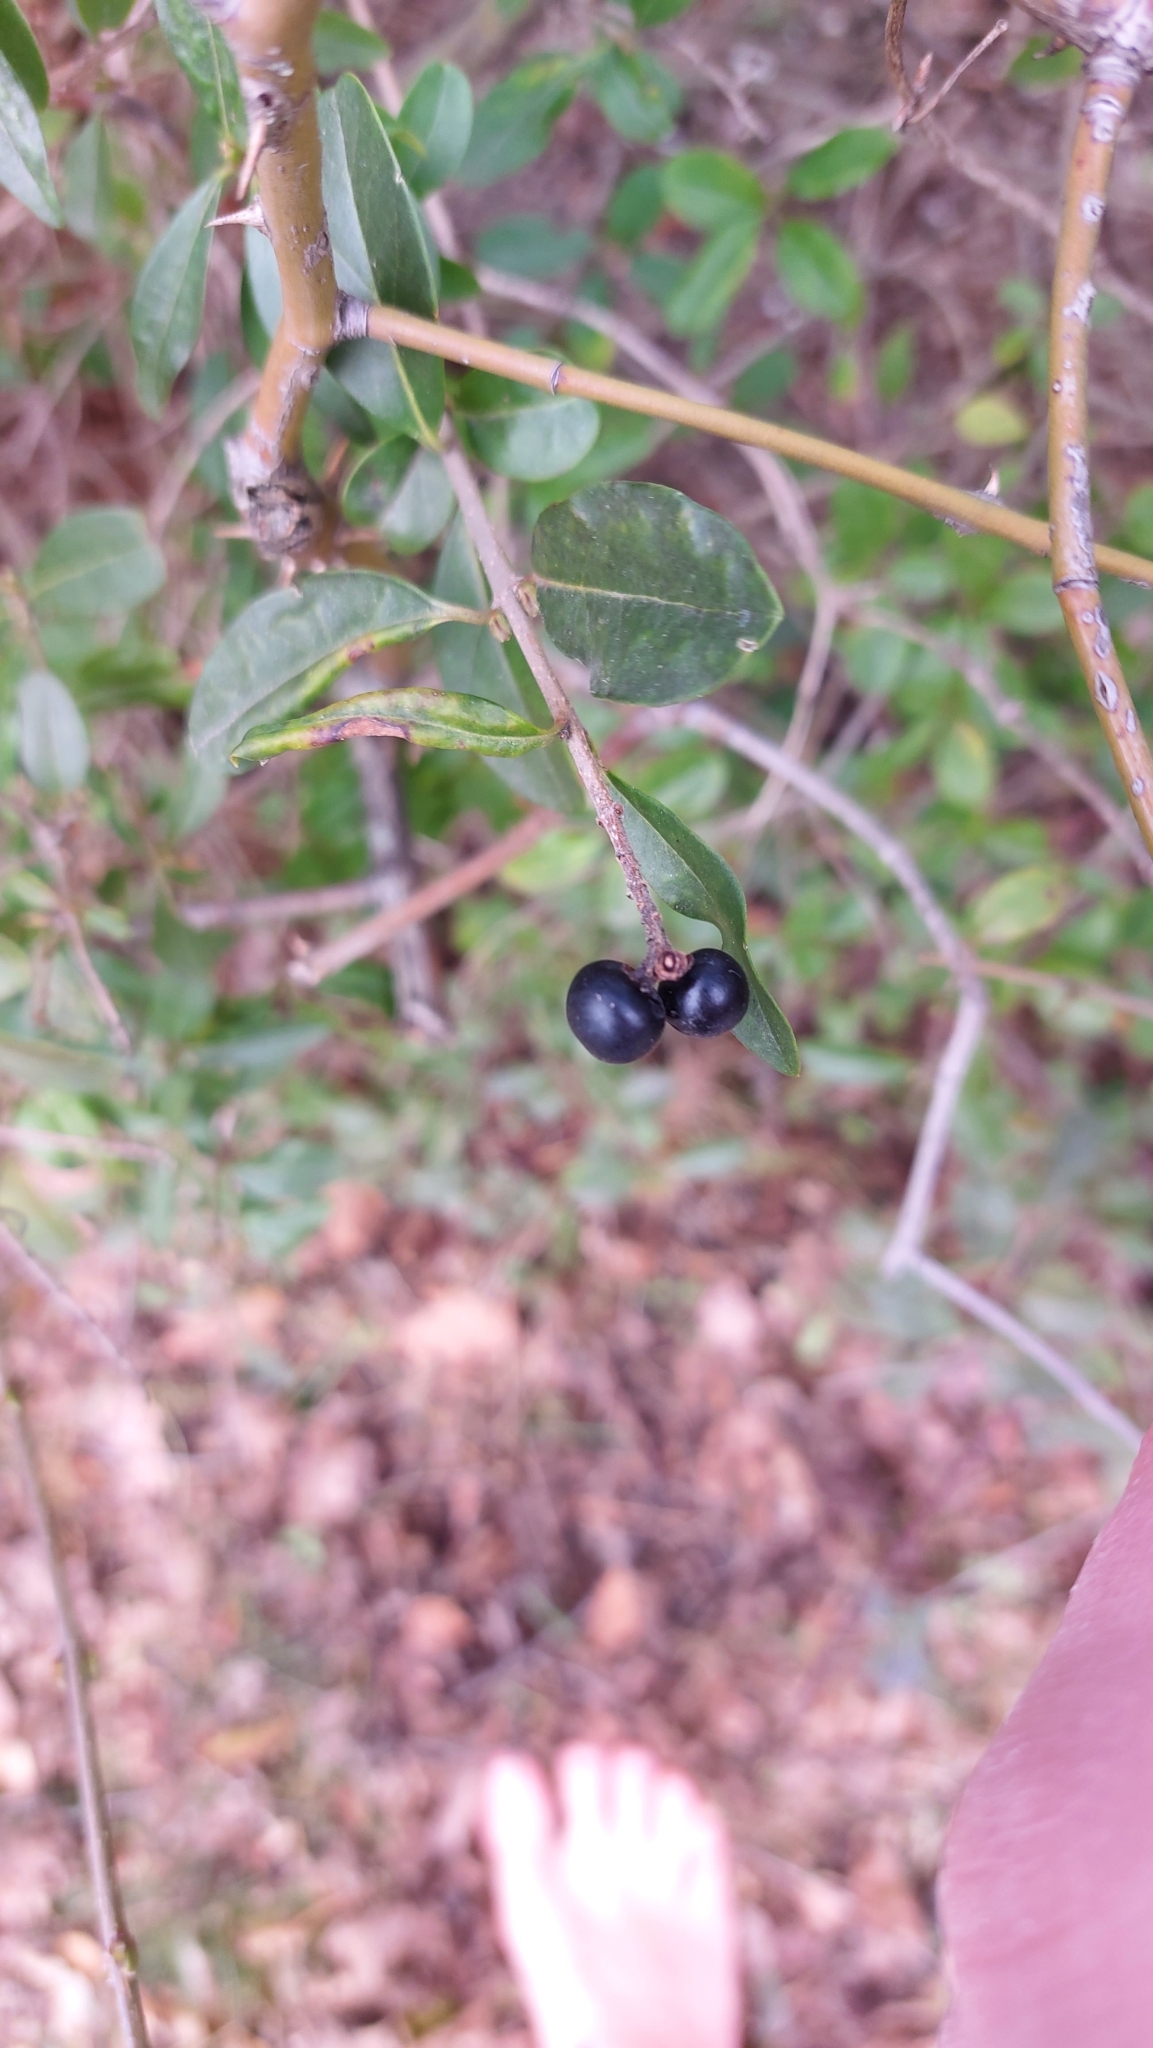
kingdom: Plantae
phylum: Tracheophyta
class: Magnoliopsida
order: Lamiales
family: Oleaceae
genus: Ligustrum
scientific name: Ligustrum vulgare
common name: Wild privet
